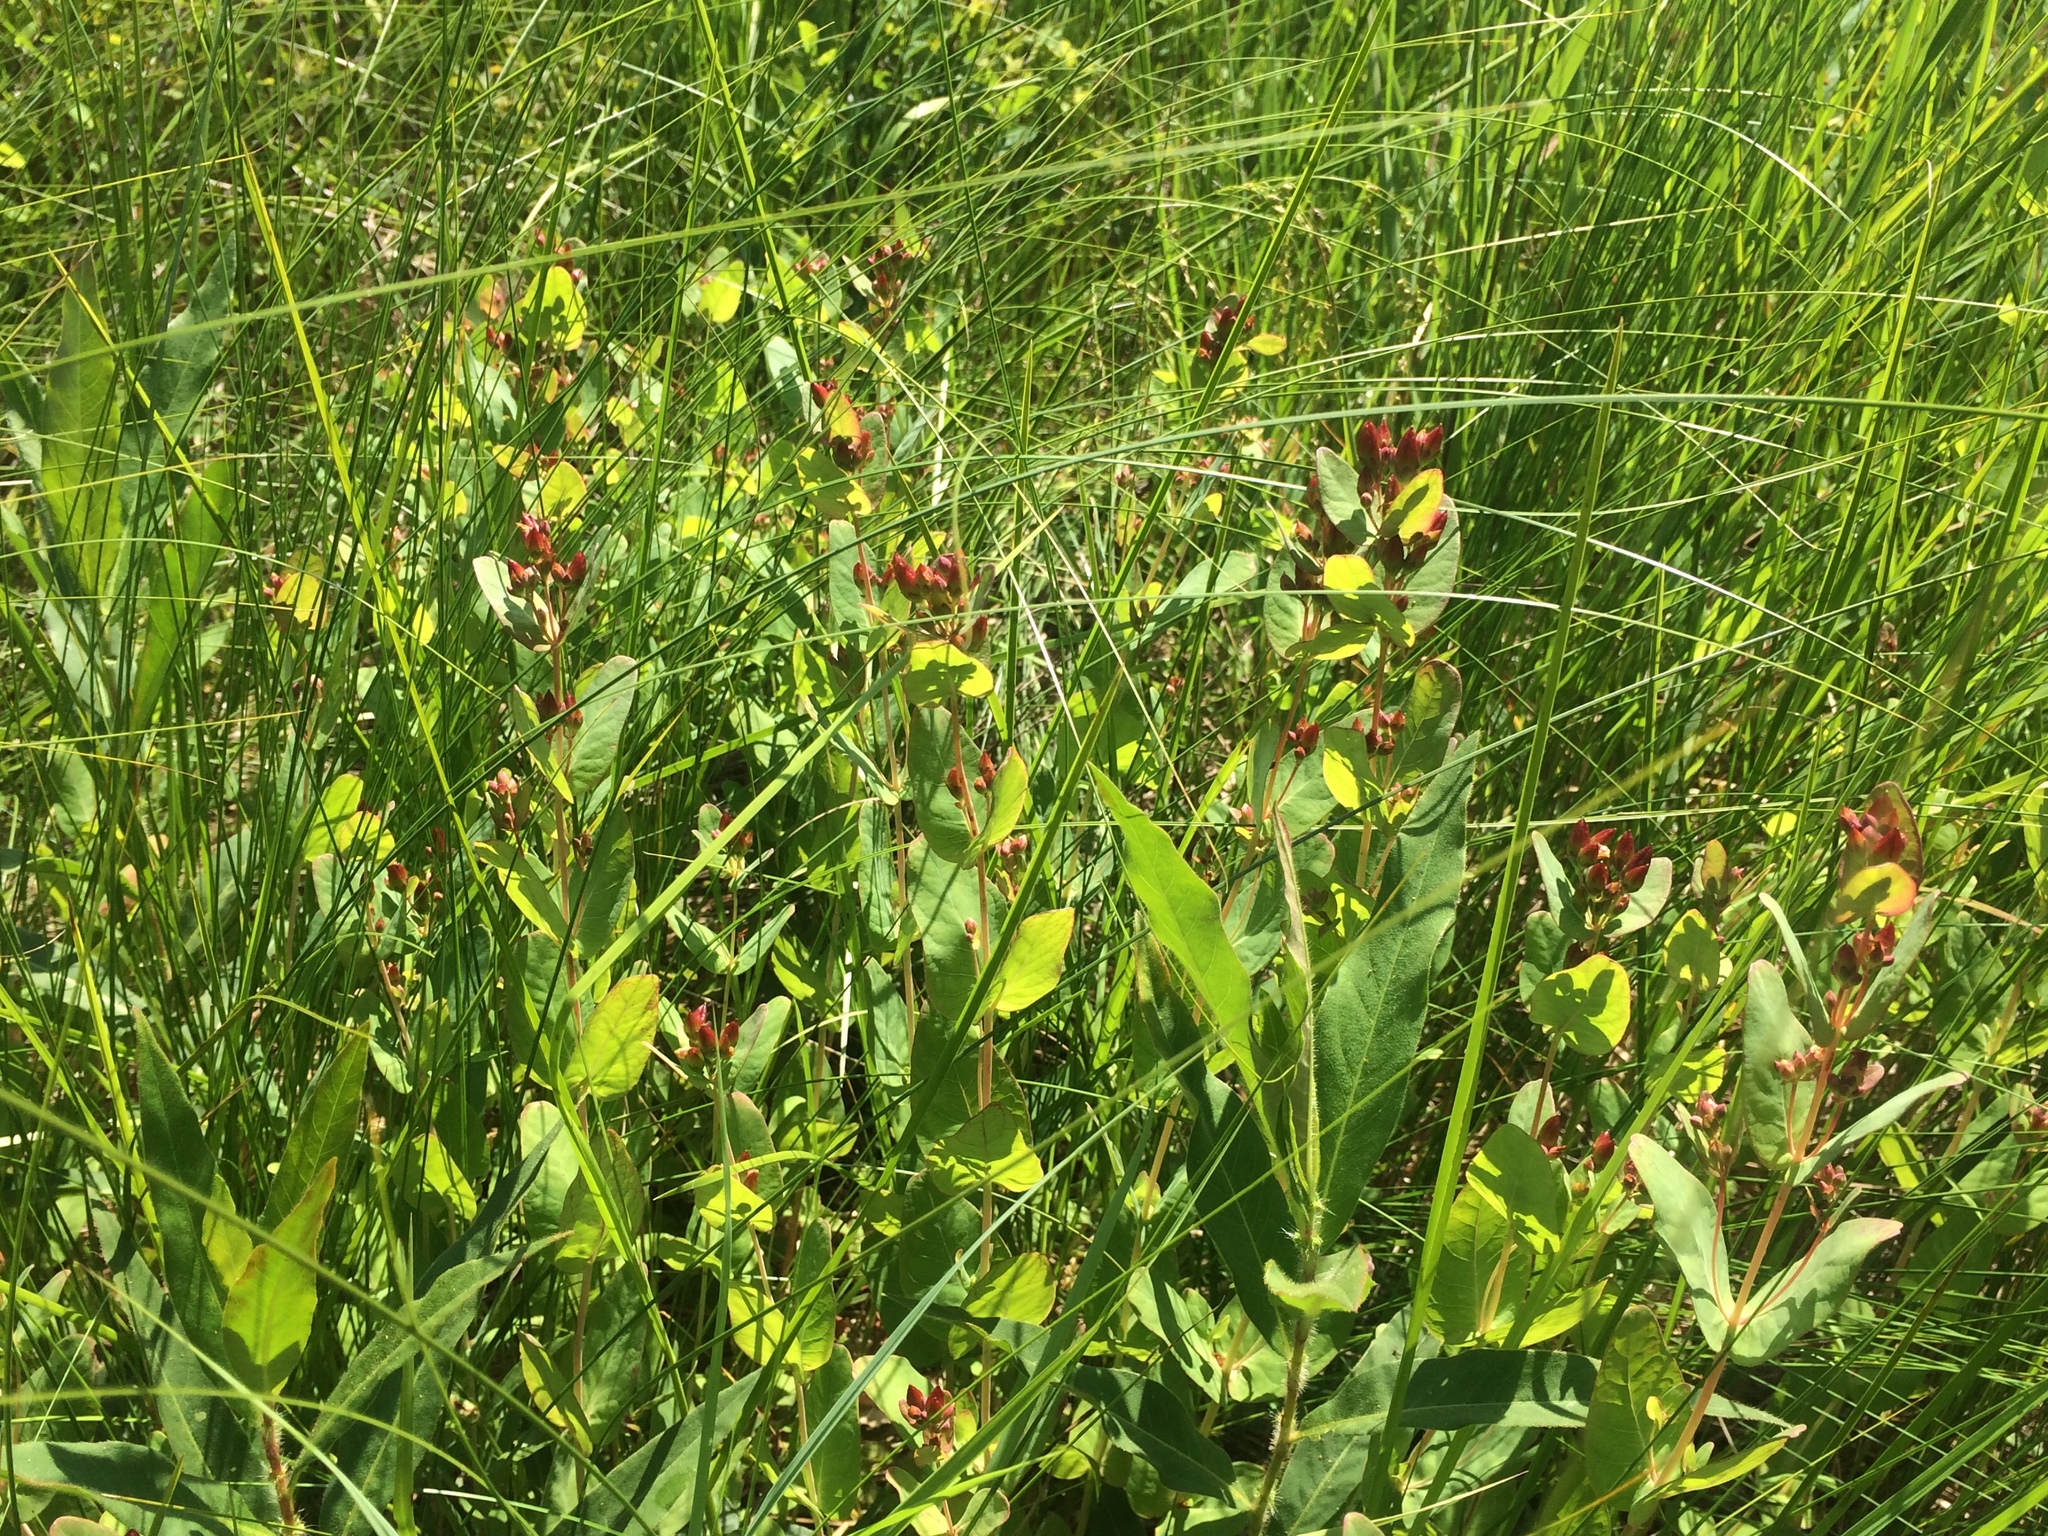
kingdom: Plantae
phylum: Tracheophyta
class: Magnoliopsida
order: Malpighiales
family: Hypericaceae
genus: Triadenum
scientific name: Triadenum fraseri
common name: Fraser's marsh st. johnswort
